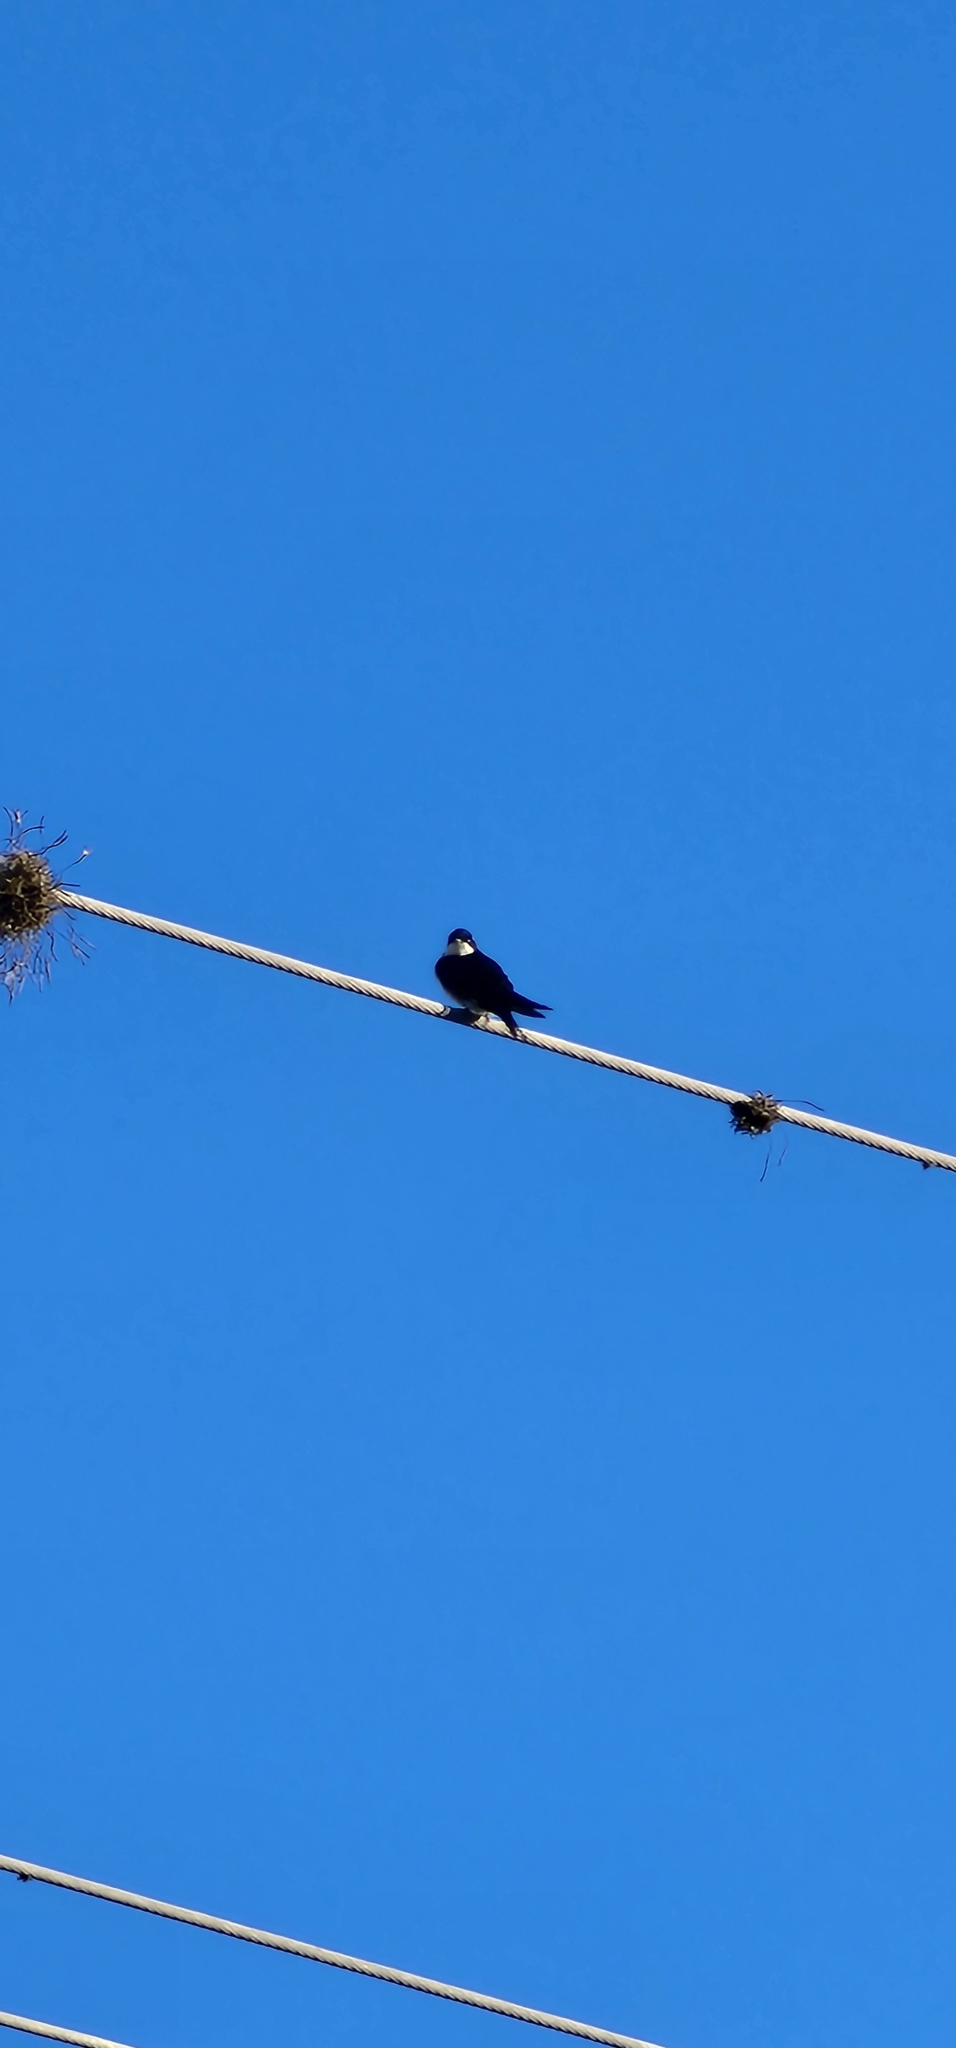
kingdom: Animalia
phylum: Chordata
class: Aves
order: Passeriformes
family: Hirundinidae
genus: Notiochelidon
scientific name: Notiochelidon cyanoleuca
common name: Blue-and-white swallow
